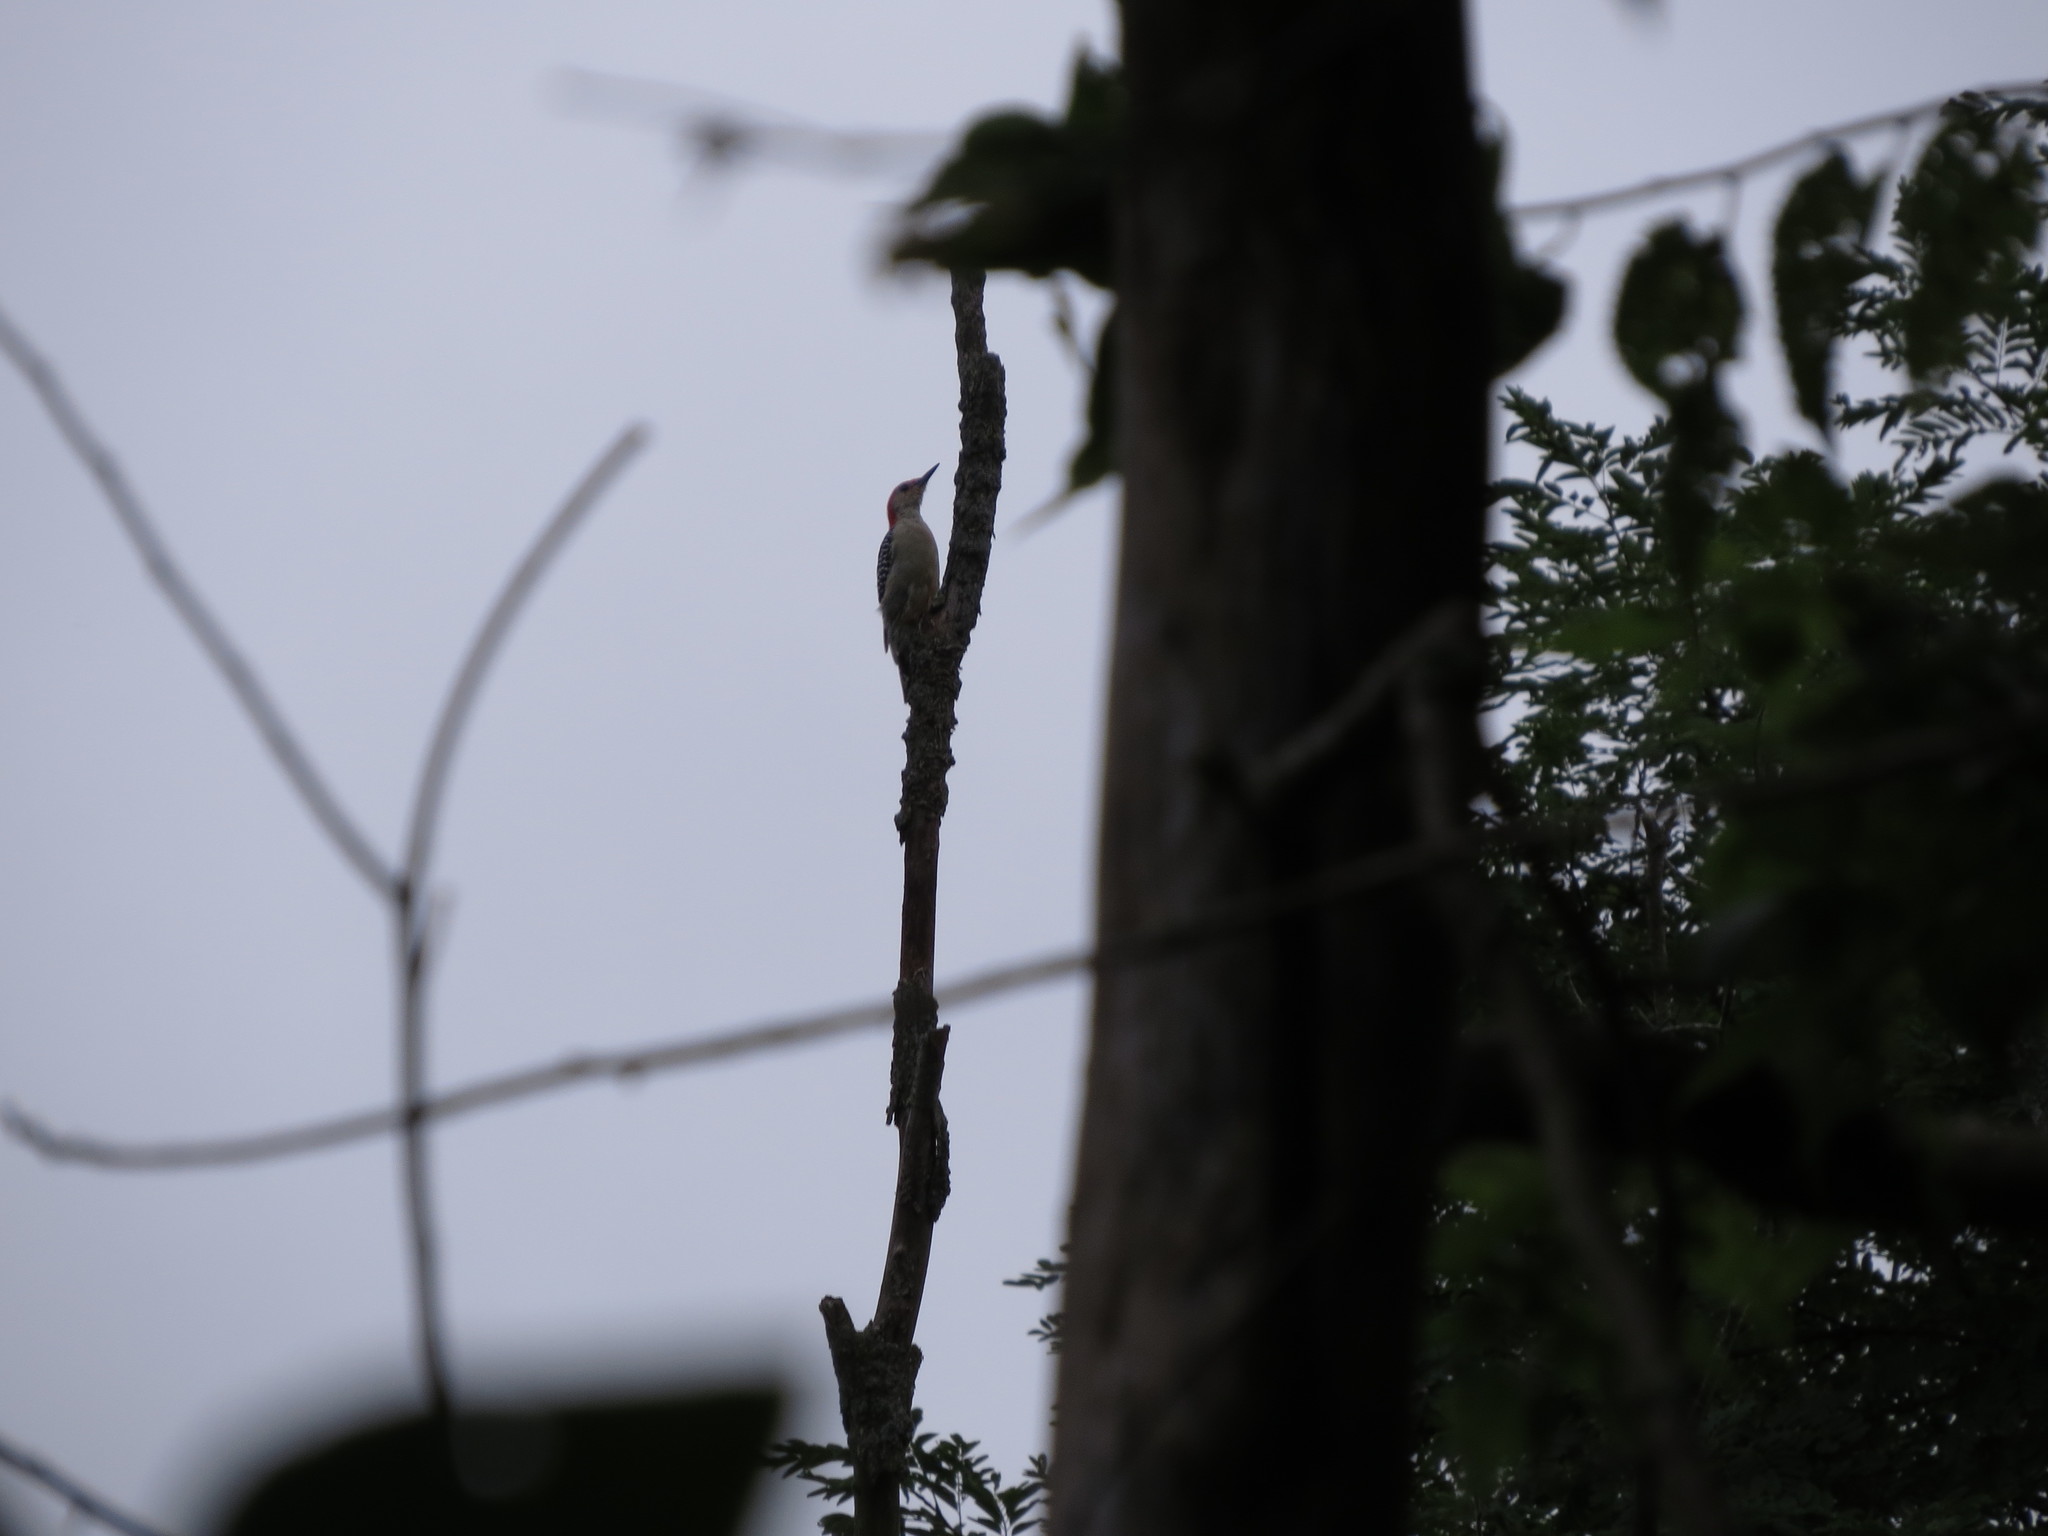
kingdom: Animalia
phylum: Chordata
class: Aves
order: Piciformes
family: Picidae
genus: Melanerpes
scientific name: Melanerpes carolinus
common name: Red-bellied woodpecker
